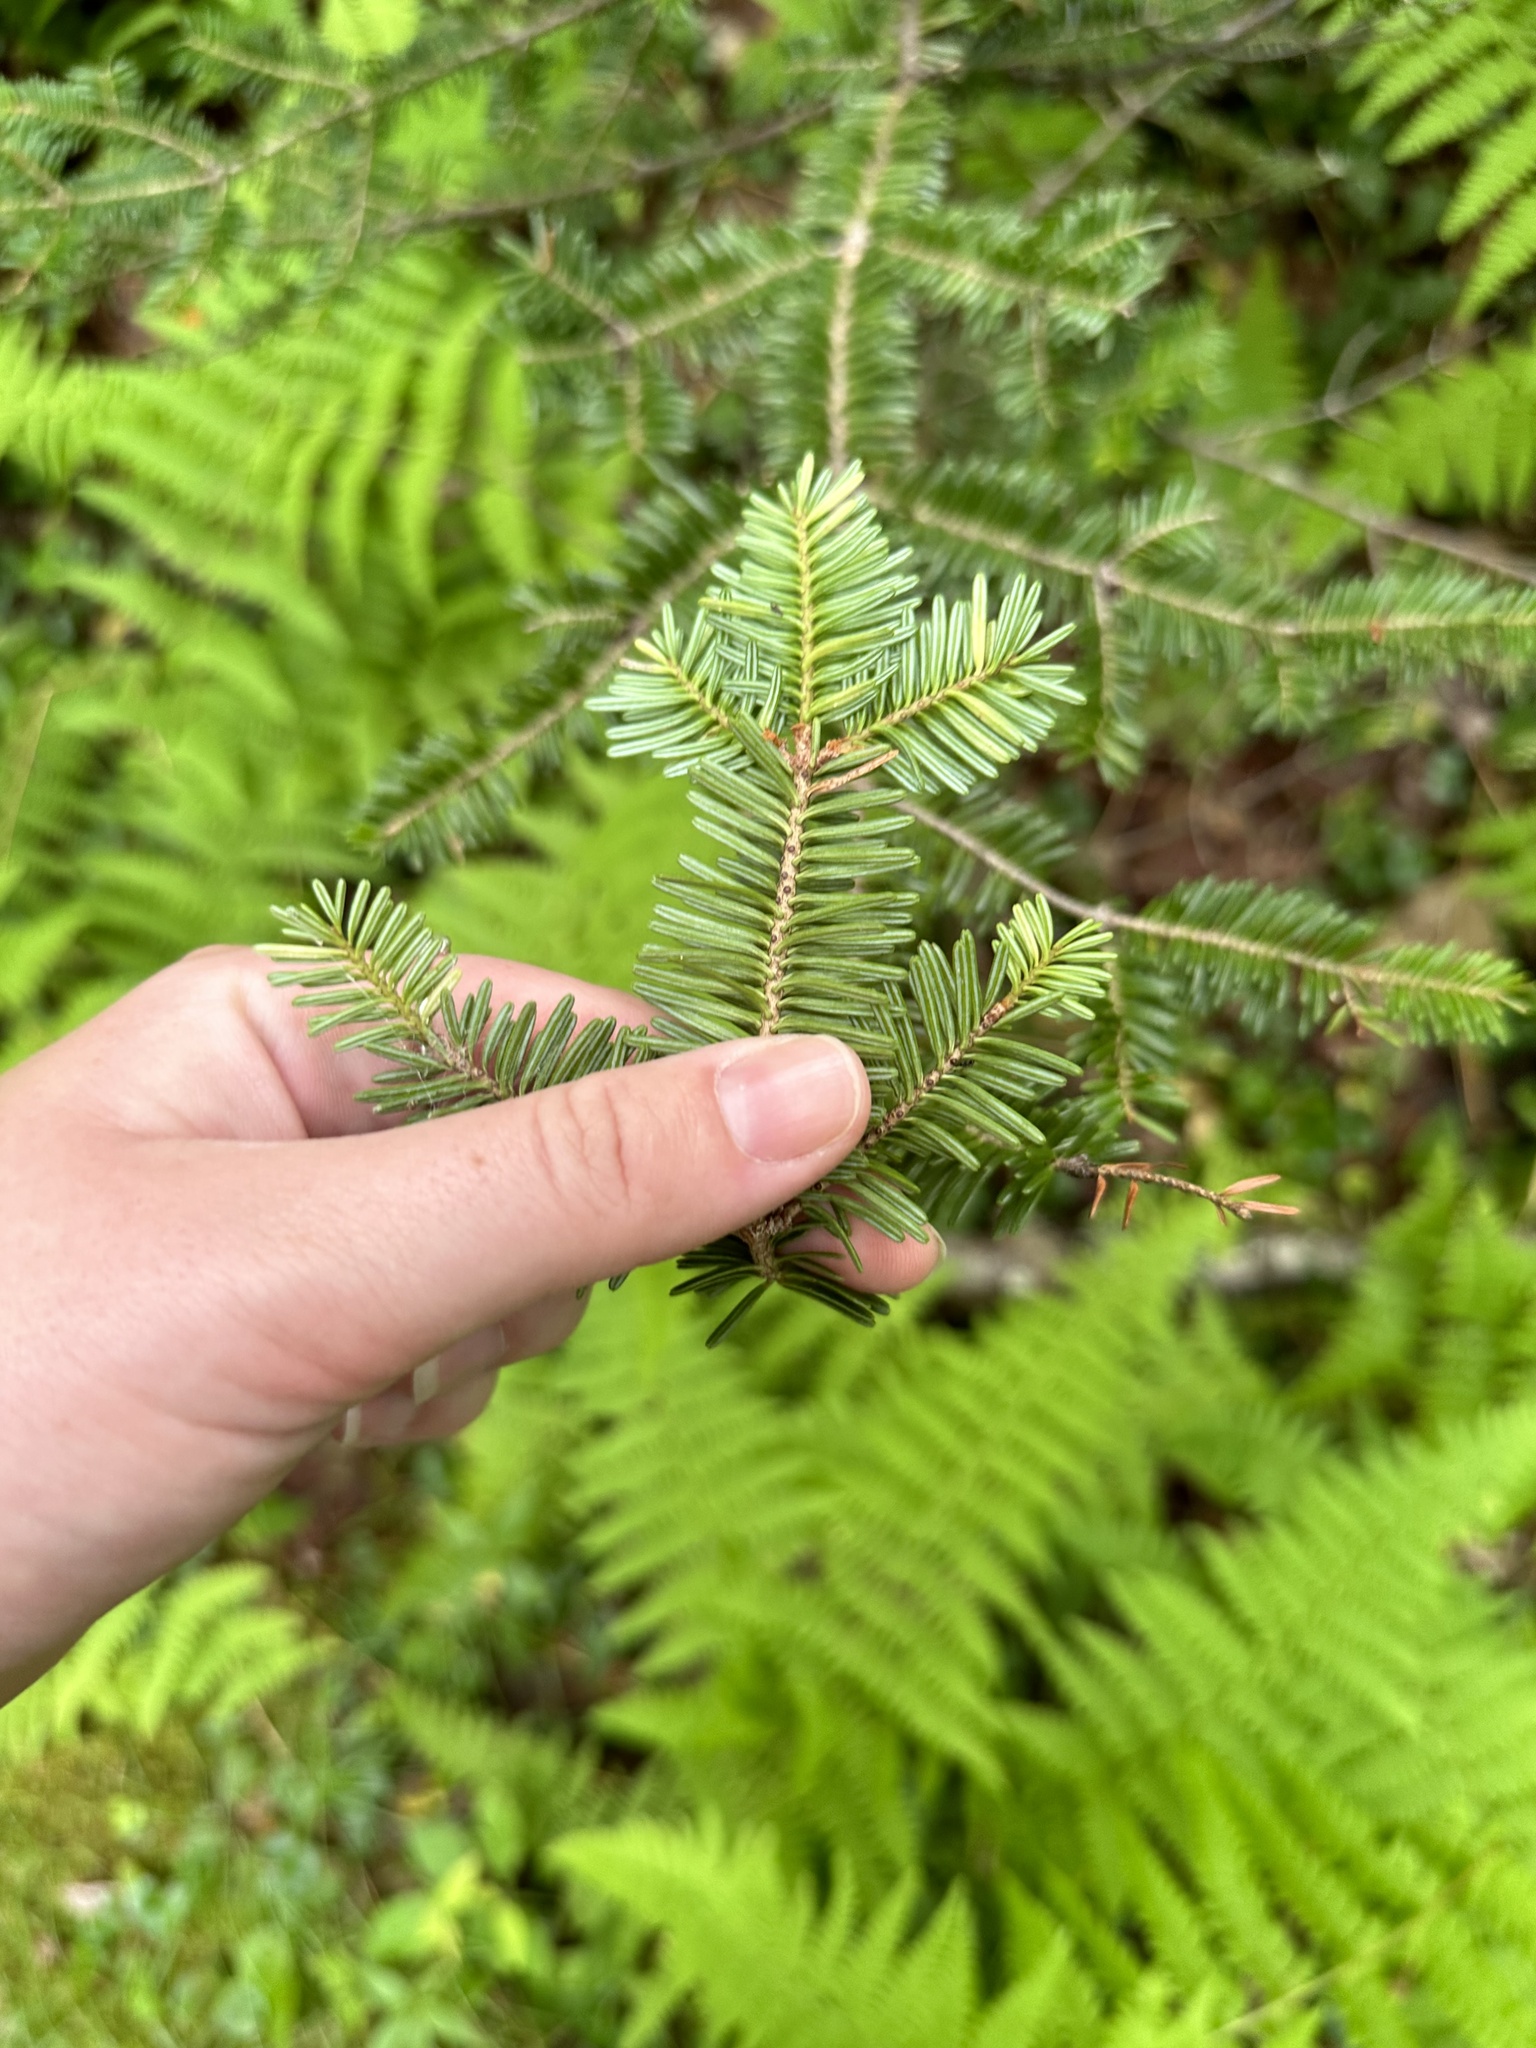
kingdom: Plantae
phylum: Tracheophyta
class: Pinopsida
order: Pinales
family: Pinaceae
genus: Abies
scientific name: Abies balsamea
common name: Balsam fir
